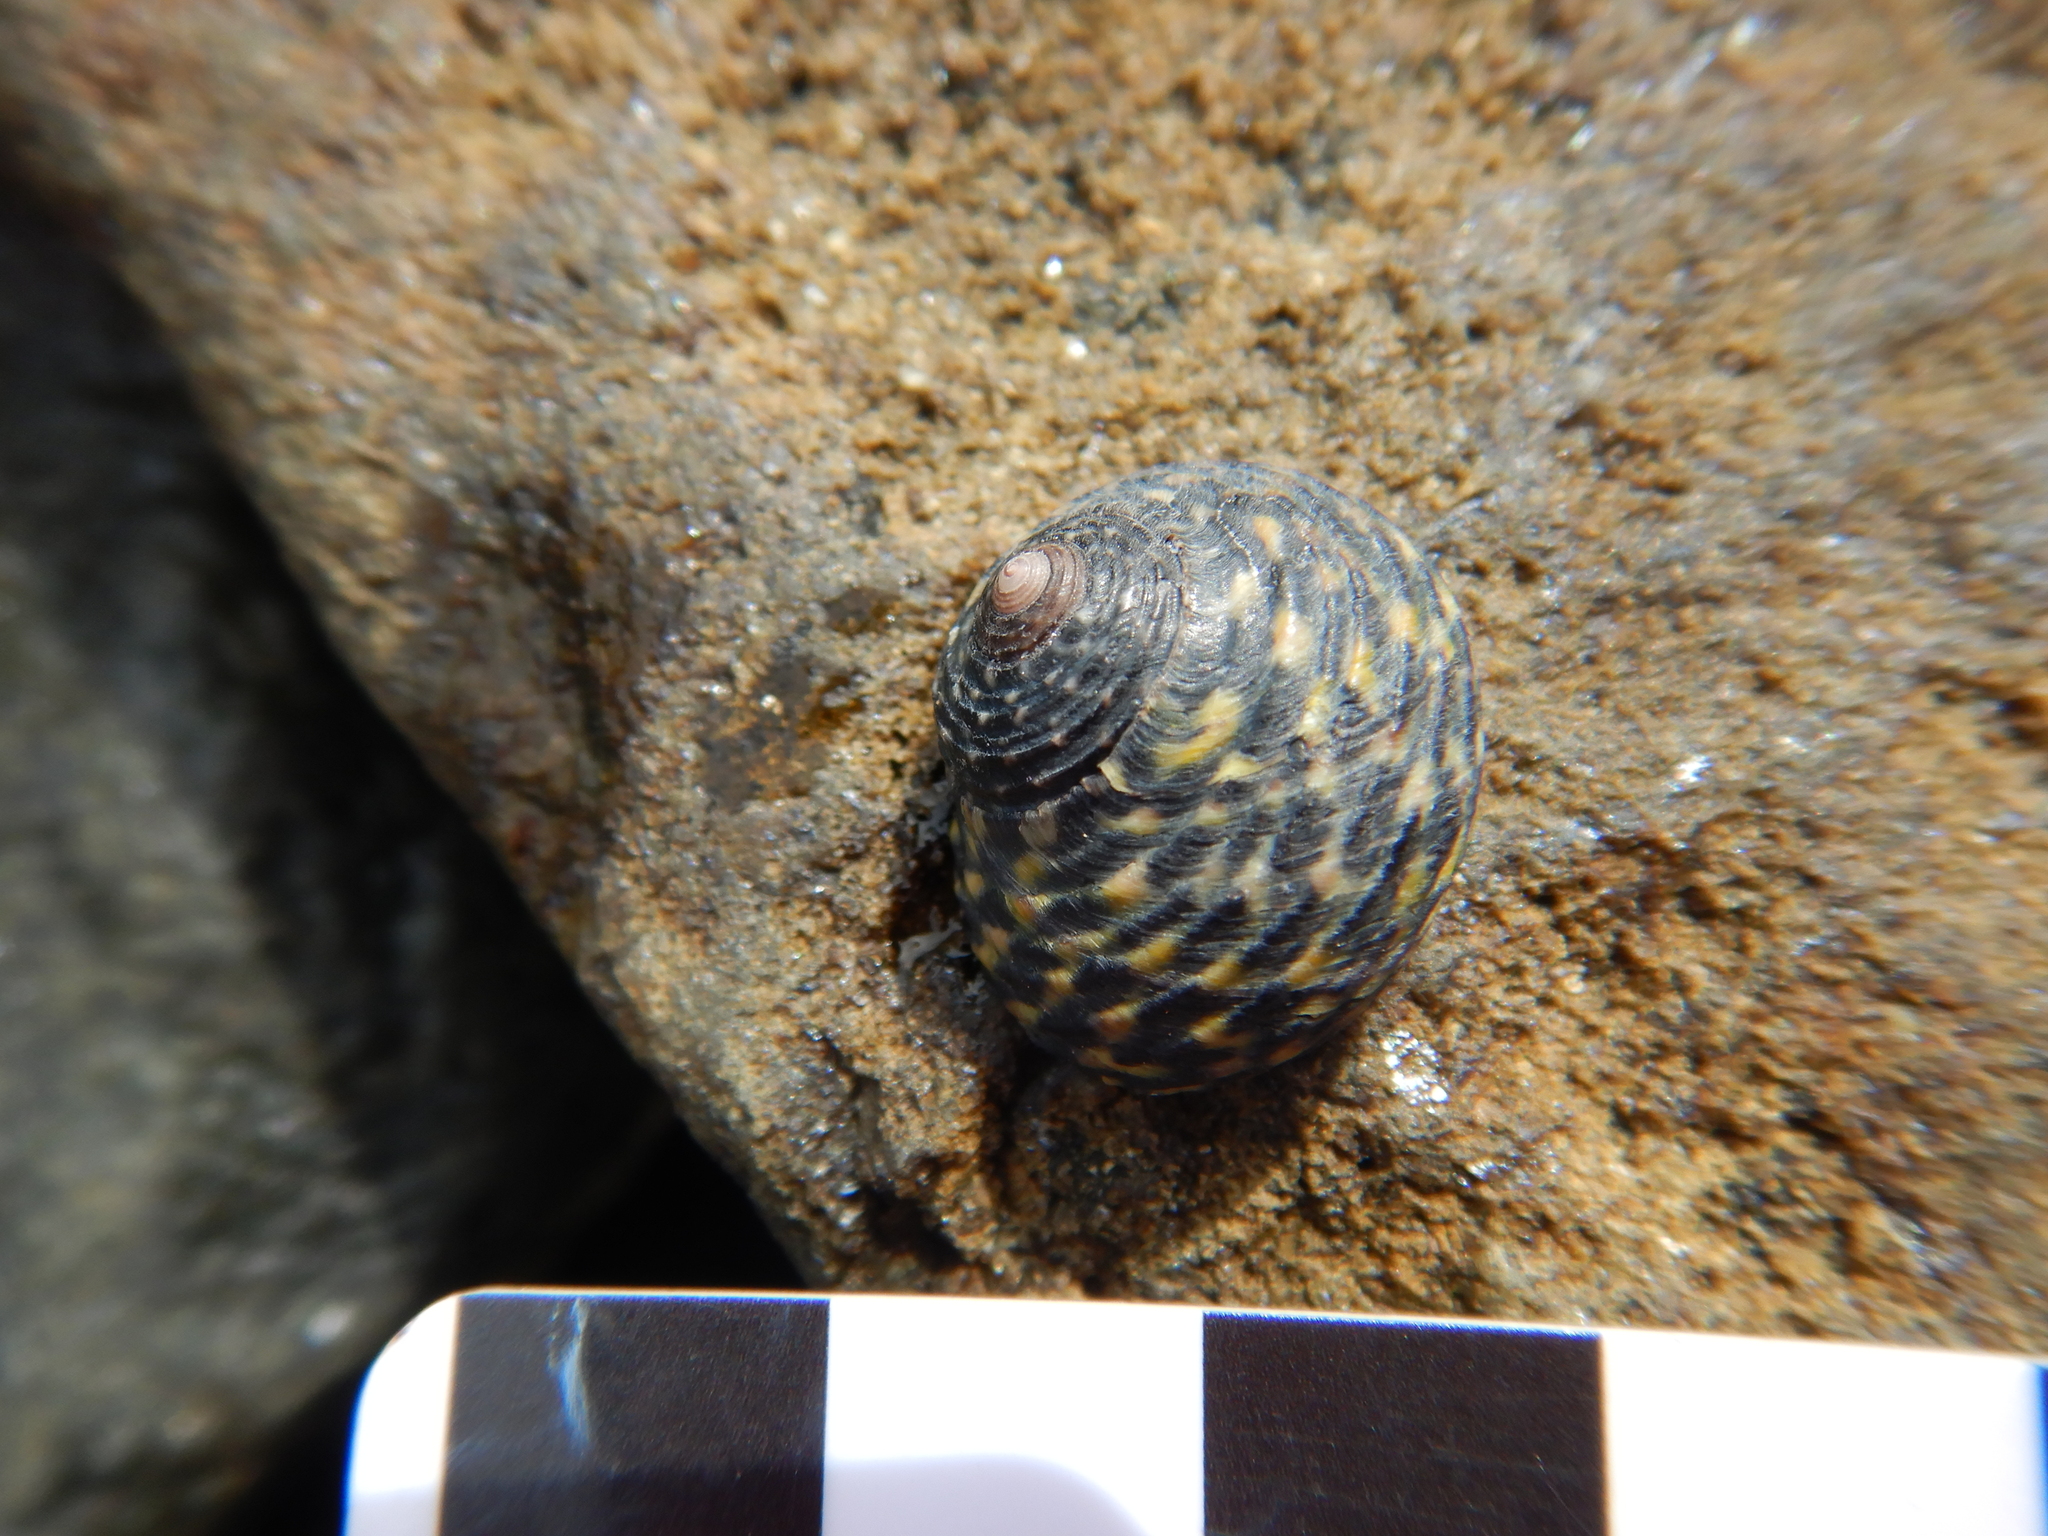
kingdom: Animalia
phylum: Mollusca
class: Gastropoda
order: Trochida
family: Trochidae
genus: Diloma
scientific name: Diloma concameratum
